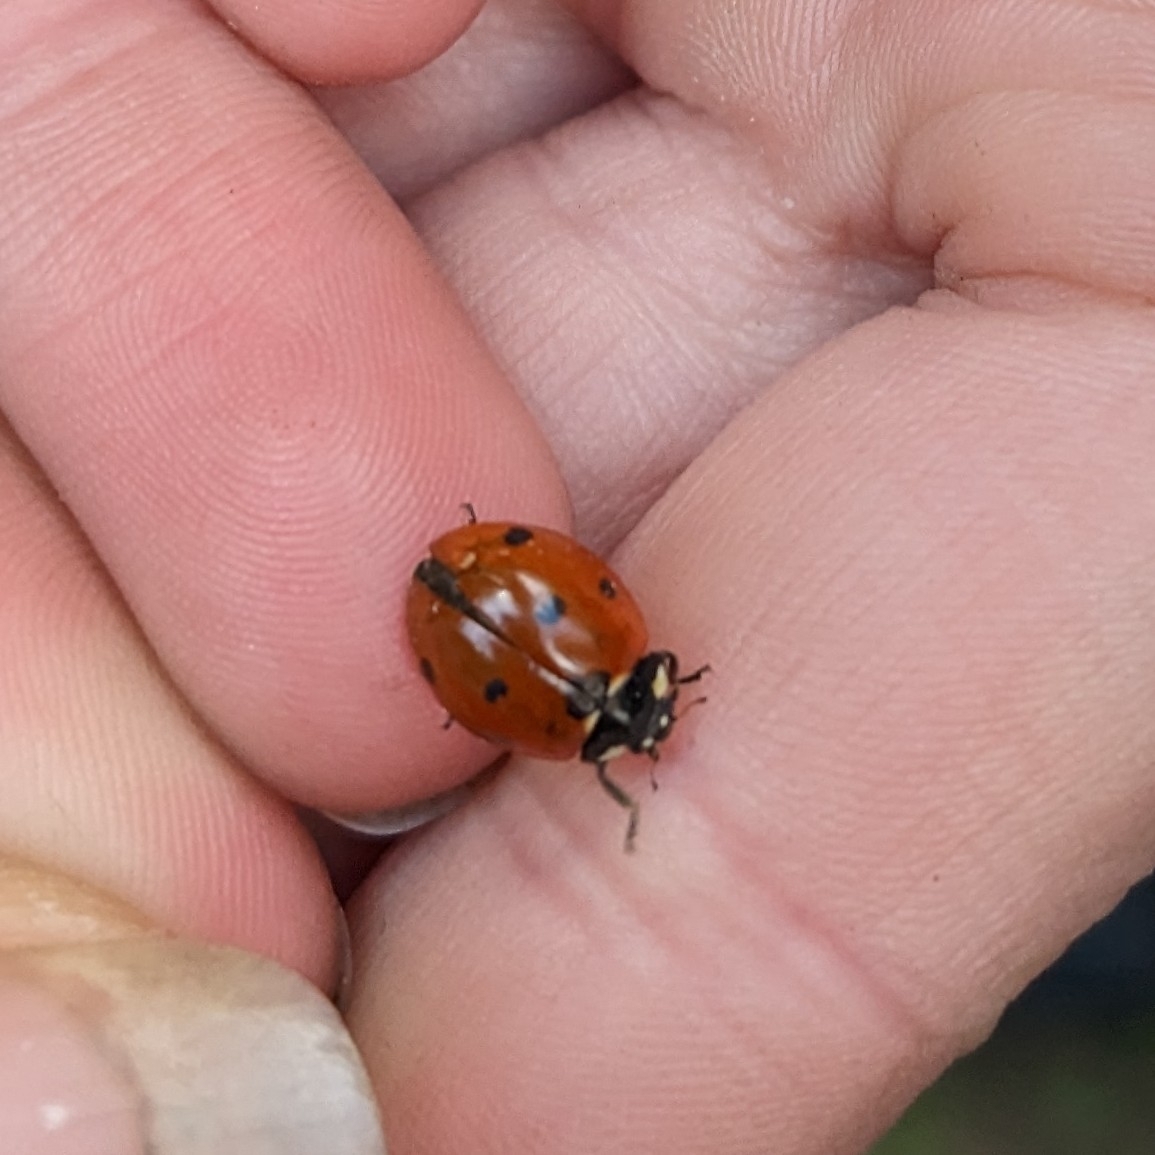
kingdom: Animalia
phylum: Arthropoda
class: Insecta
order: Coleoptera
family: Coccinellidae
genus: Coccinella
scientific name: Coccinella septempunctata
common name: Sevenspotted lady beetle
